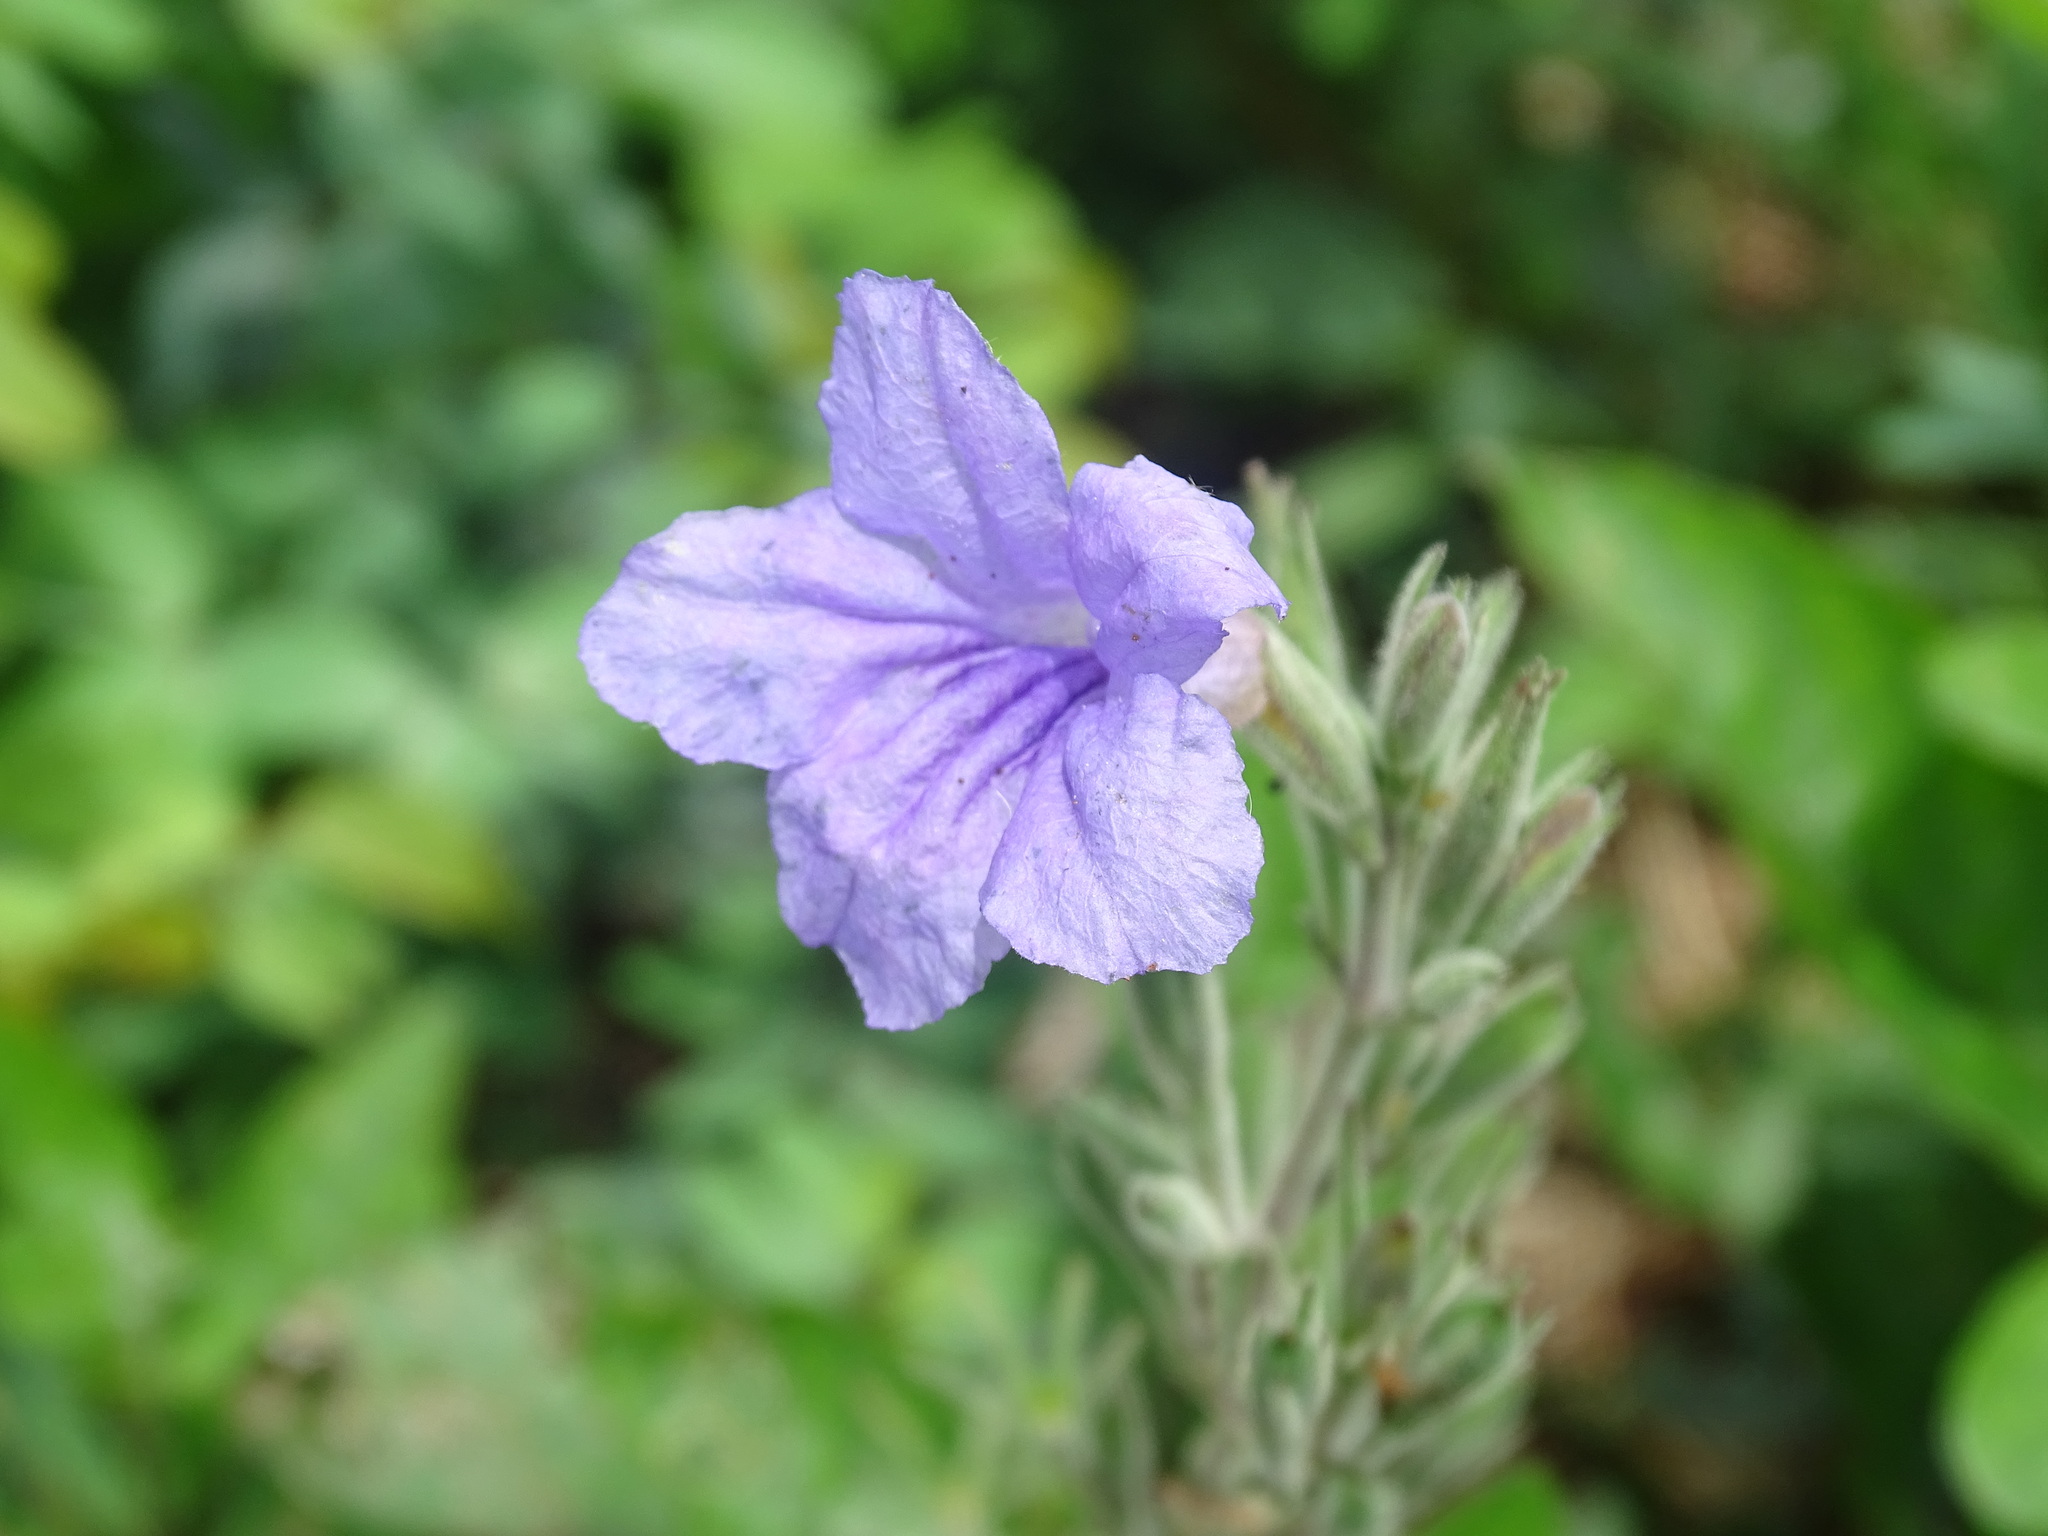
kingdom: Plantae
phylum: Tracheophyta
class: Magnoliopsida
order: Lamiales
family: Acanthaceae
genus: Ruellia
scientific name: Ruellia ciliatiflora
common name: Hairyflower wild petunia
